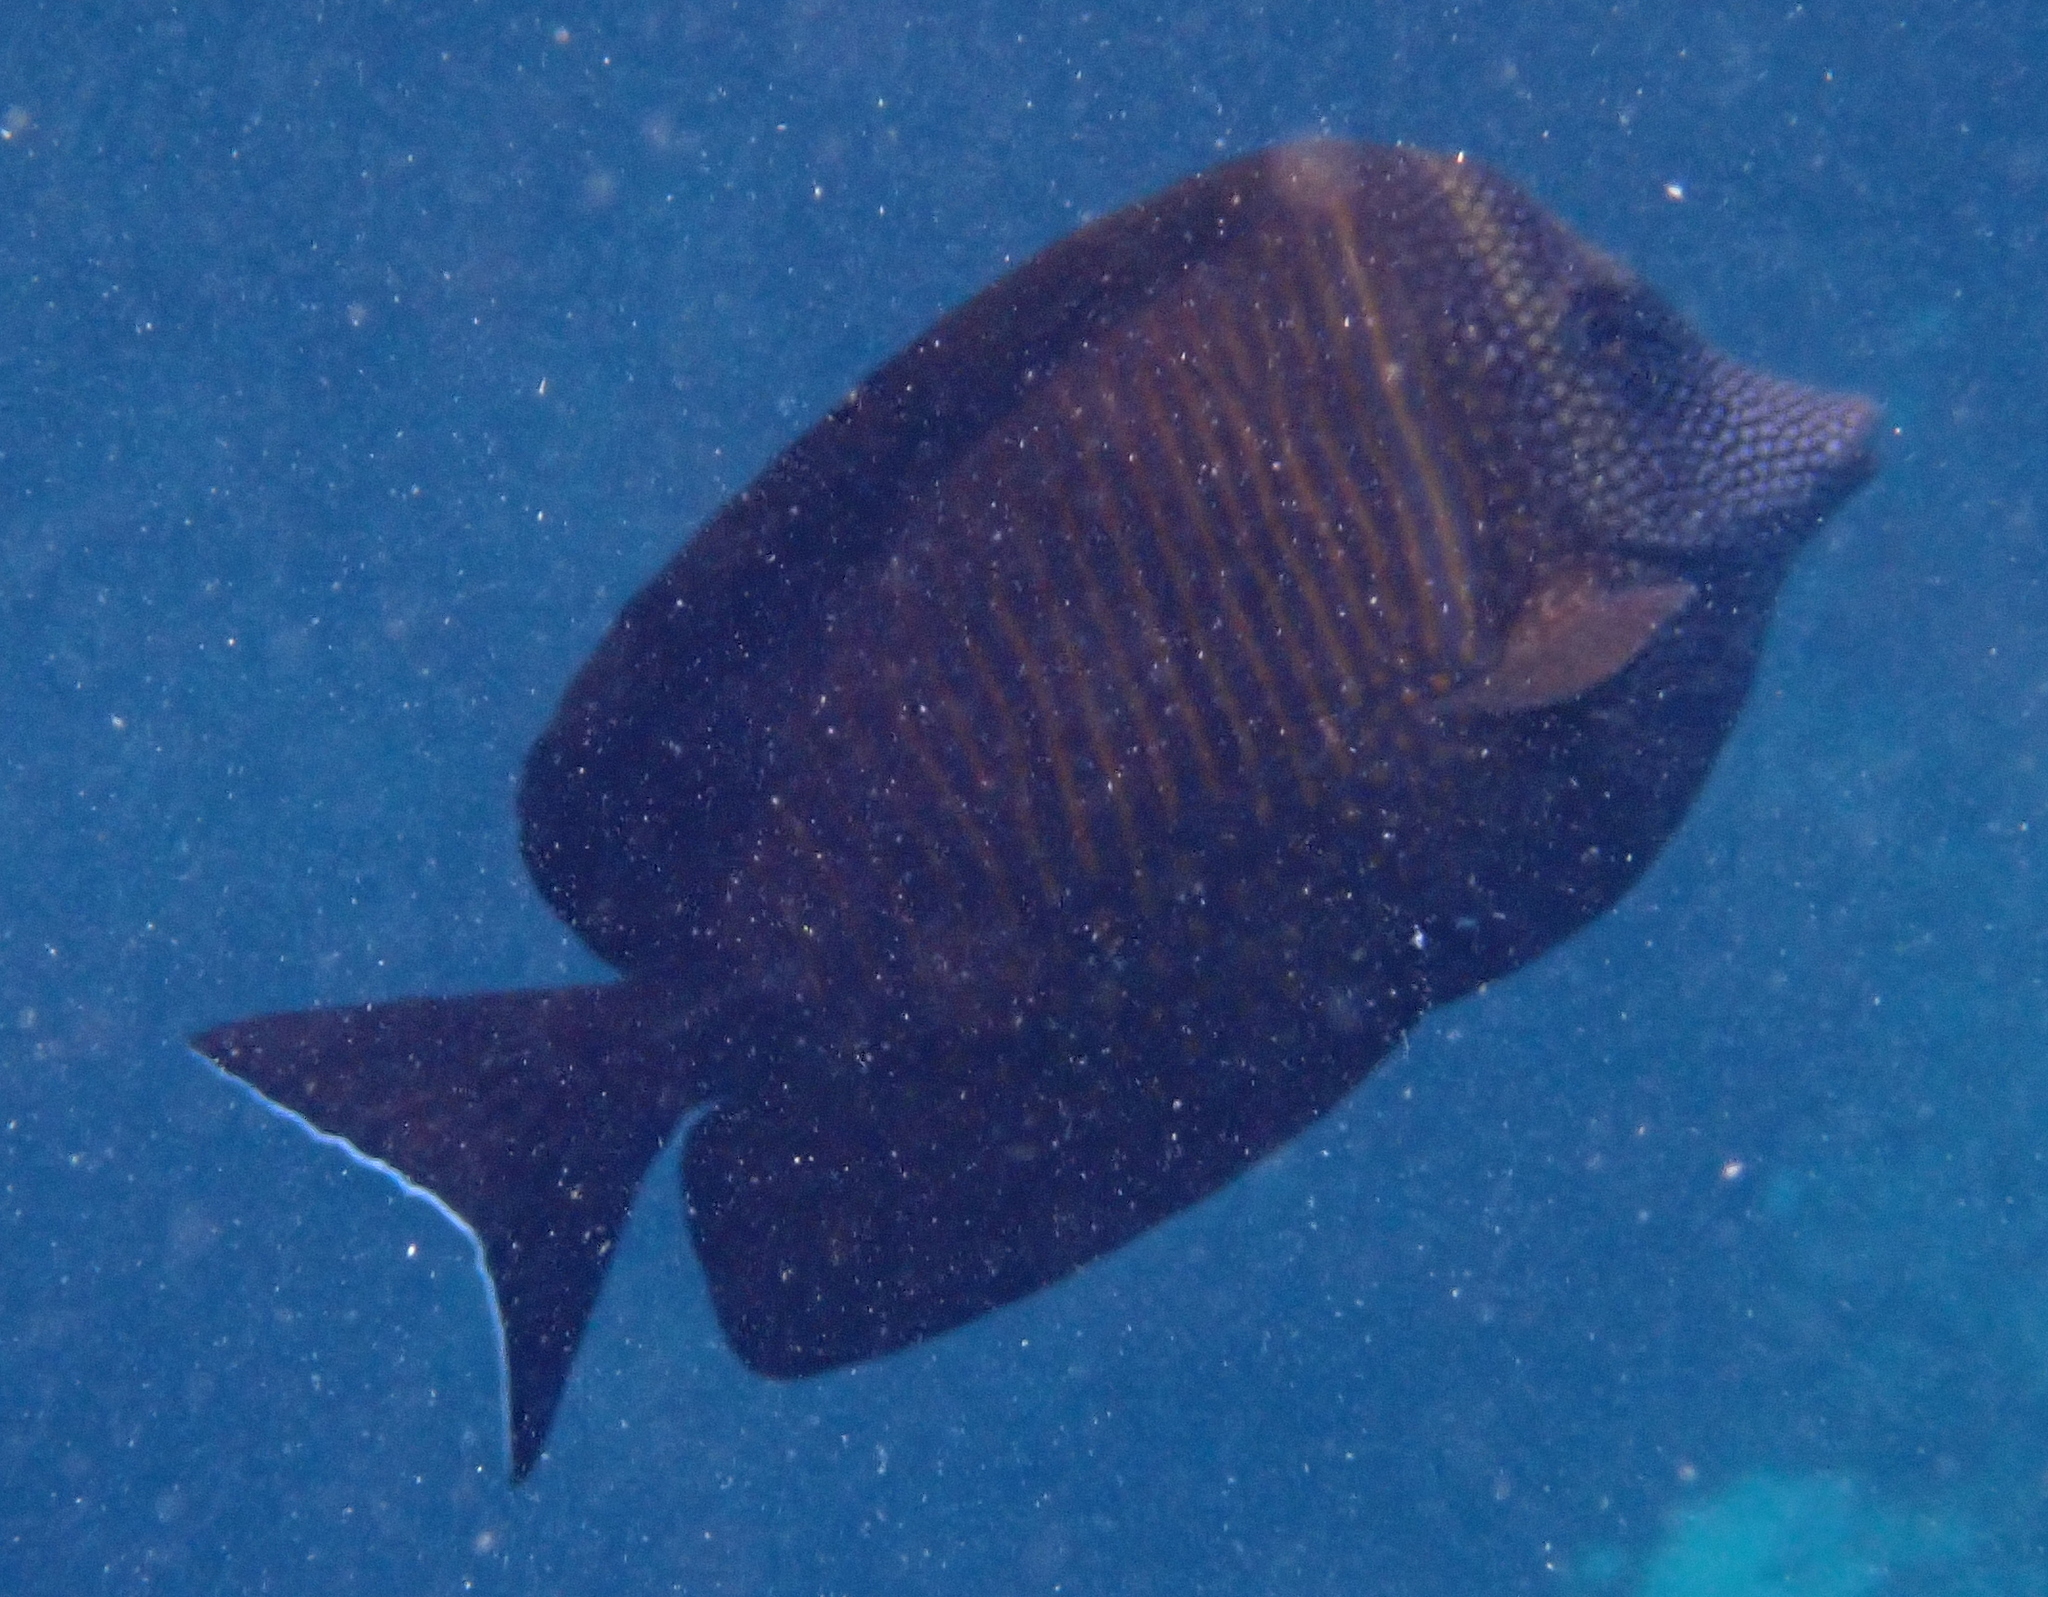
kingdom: Animalia
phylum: Chordata
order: Perciformes
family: Acanthuridae
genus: Zebrasoma
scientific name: Zebrasoma desjardinii
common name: Desjardin's sailfin tang
